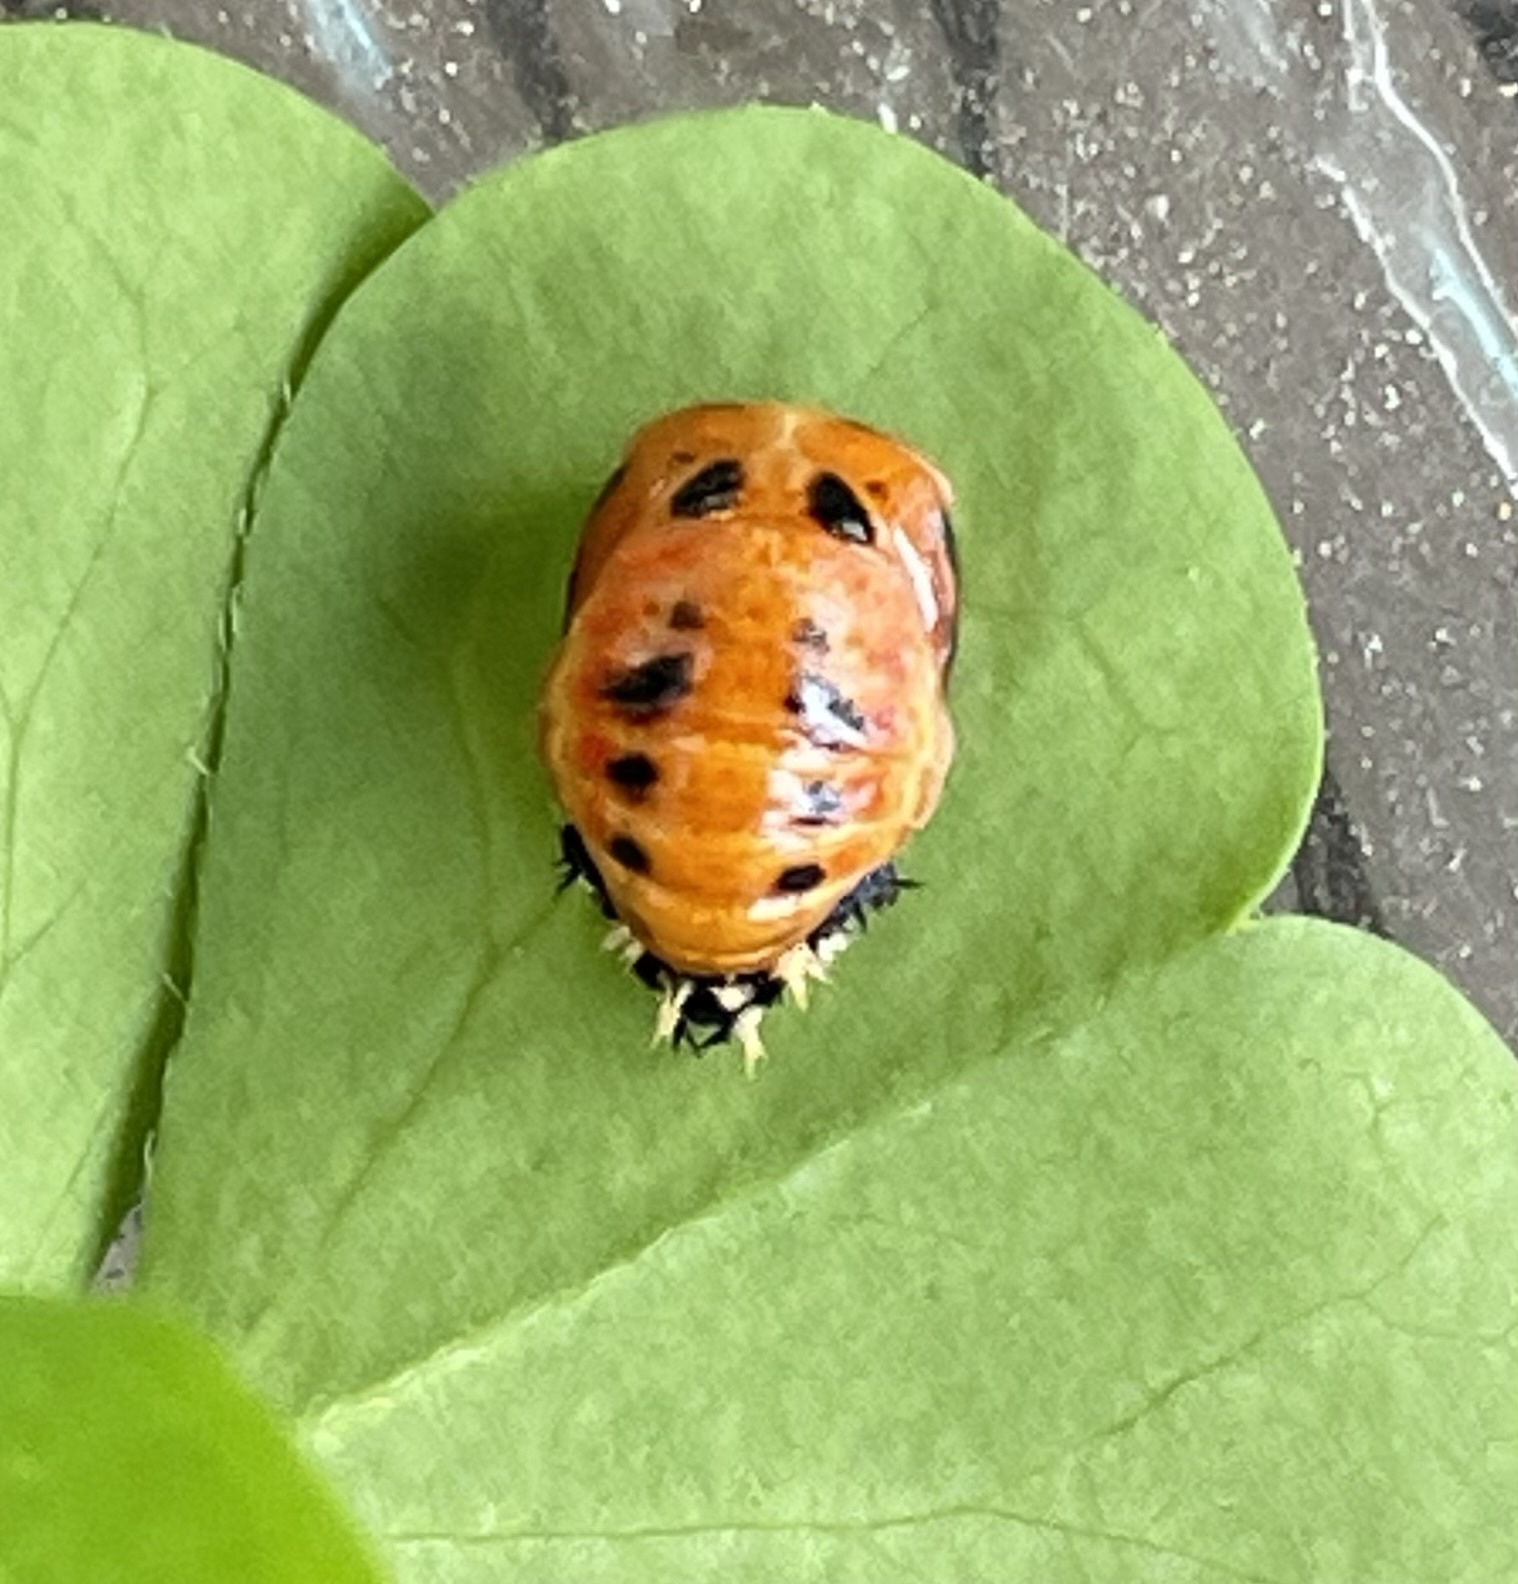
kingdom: Animalia
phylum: Arthropoda
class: Insecta
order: Coleoptera
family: Coccinellidae
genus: Harmonia
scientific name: Harmonia axyridis
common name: Harlequin ladybird
